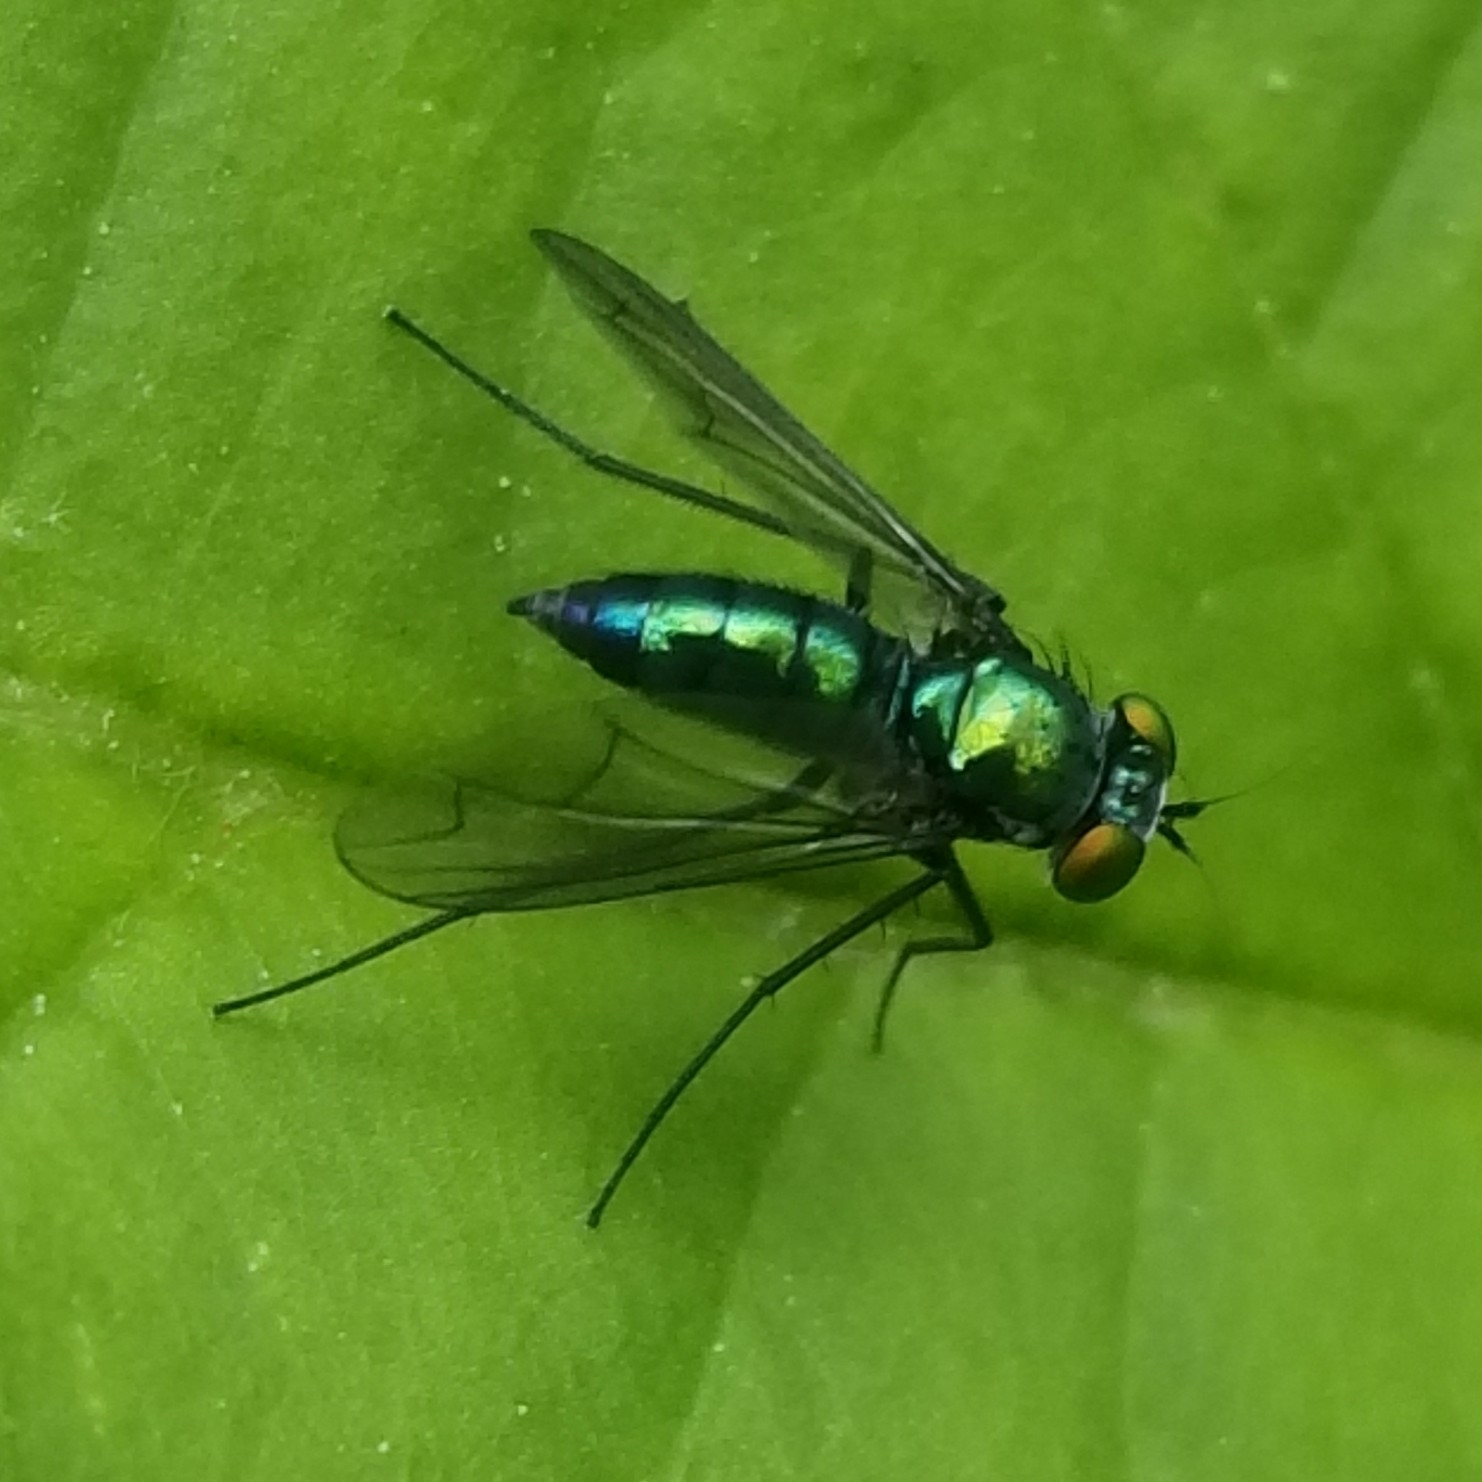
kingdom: Animalia
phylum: Arthropoda
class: Insecta
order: Diptera
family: Dolichopodidae
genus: Condylostylus
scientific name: Condylostylus patibulatus
